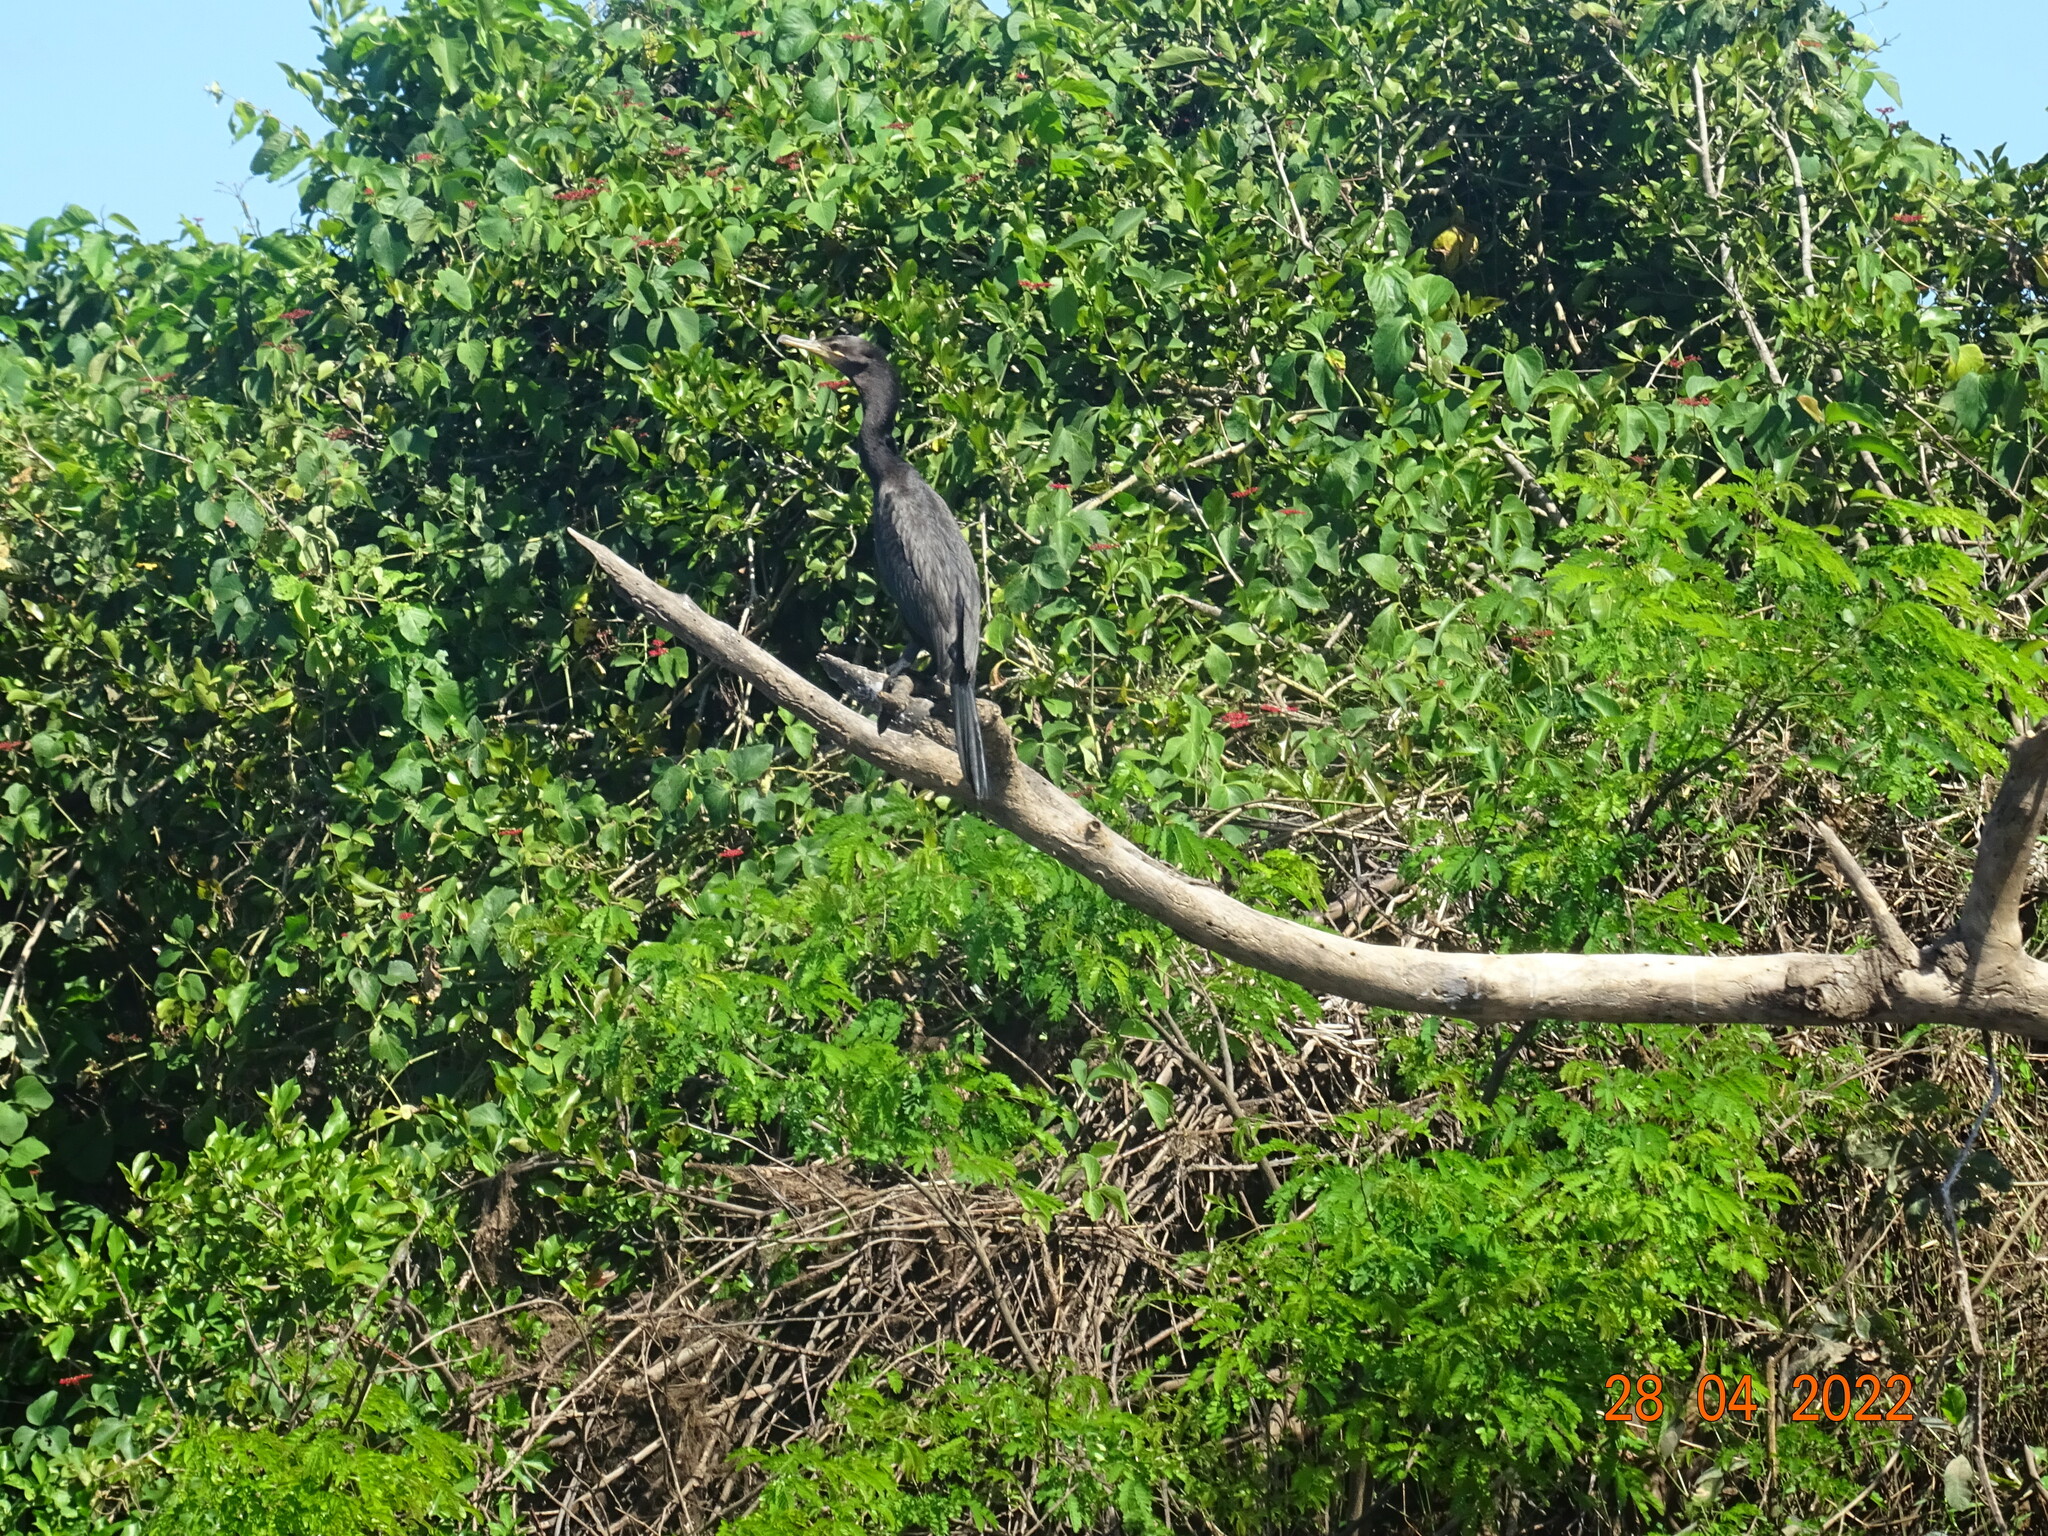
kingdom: Animalia
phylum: Chordata
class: Aves
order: Suliformes
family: Phalacrocoracidae
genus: Phalacrocorax
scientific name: Phalacrocorax brasilianus
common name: Neotropic cormorant
